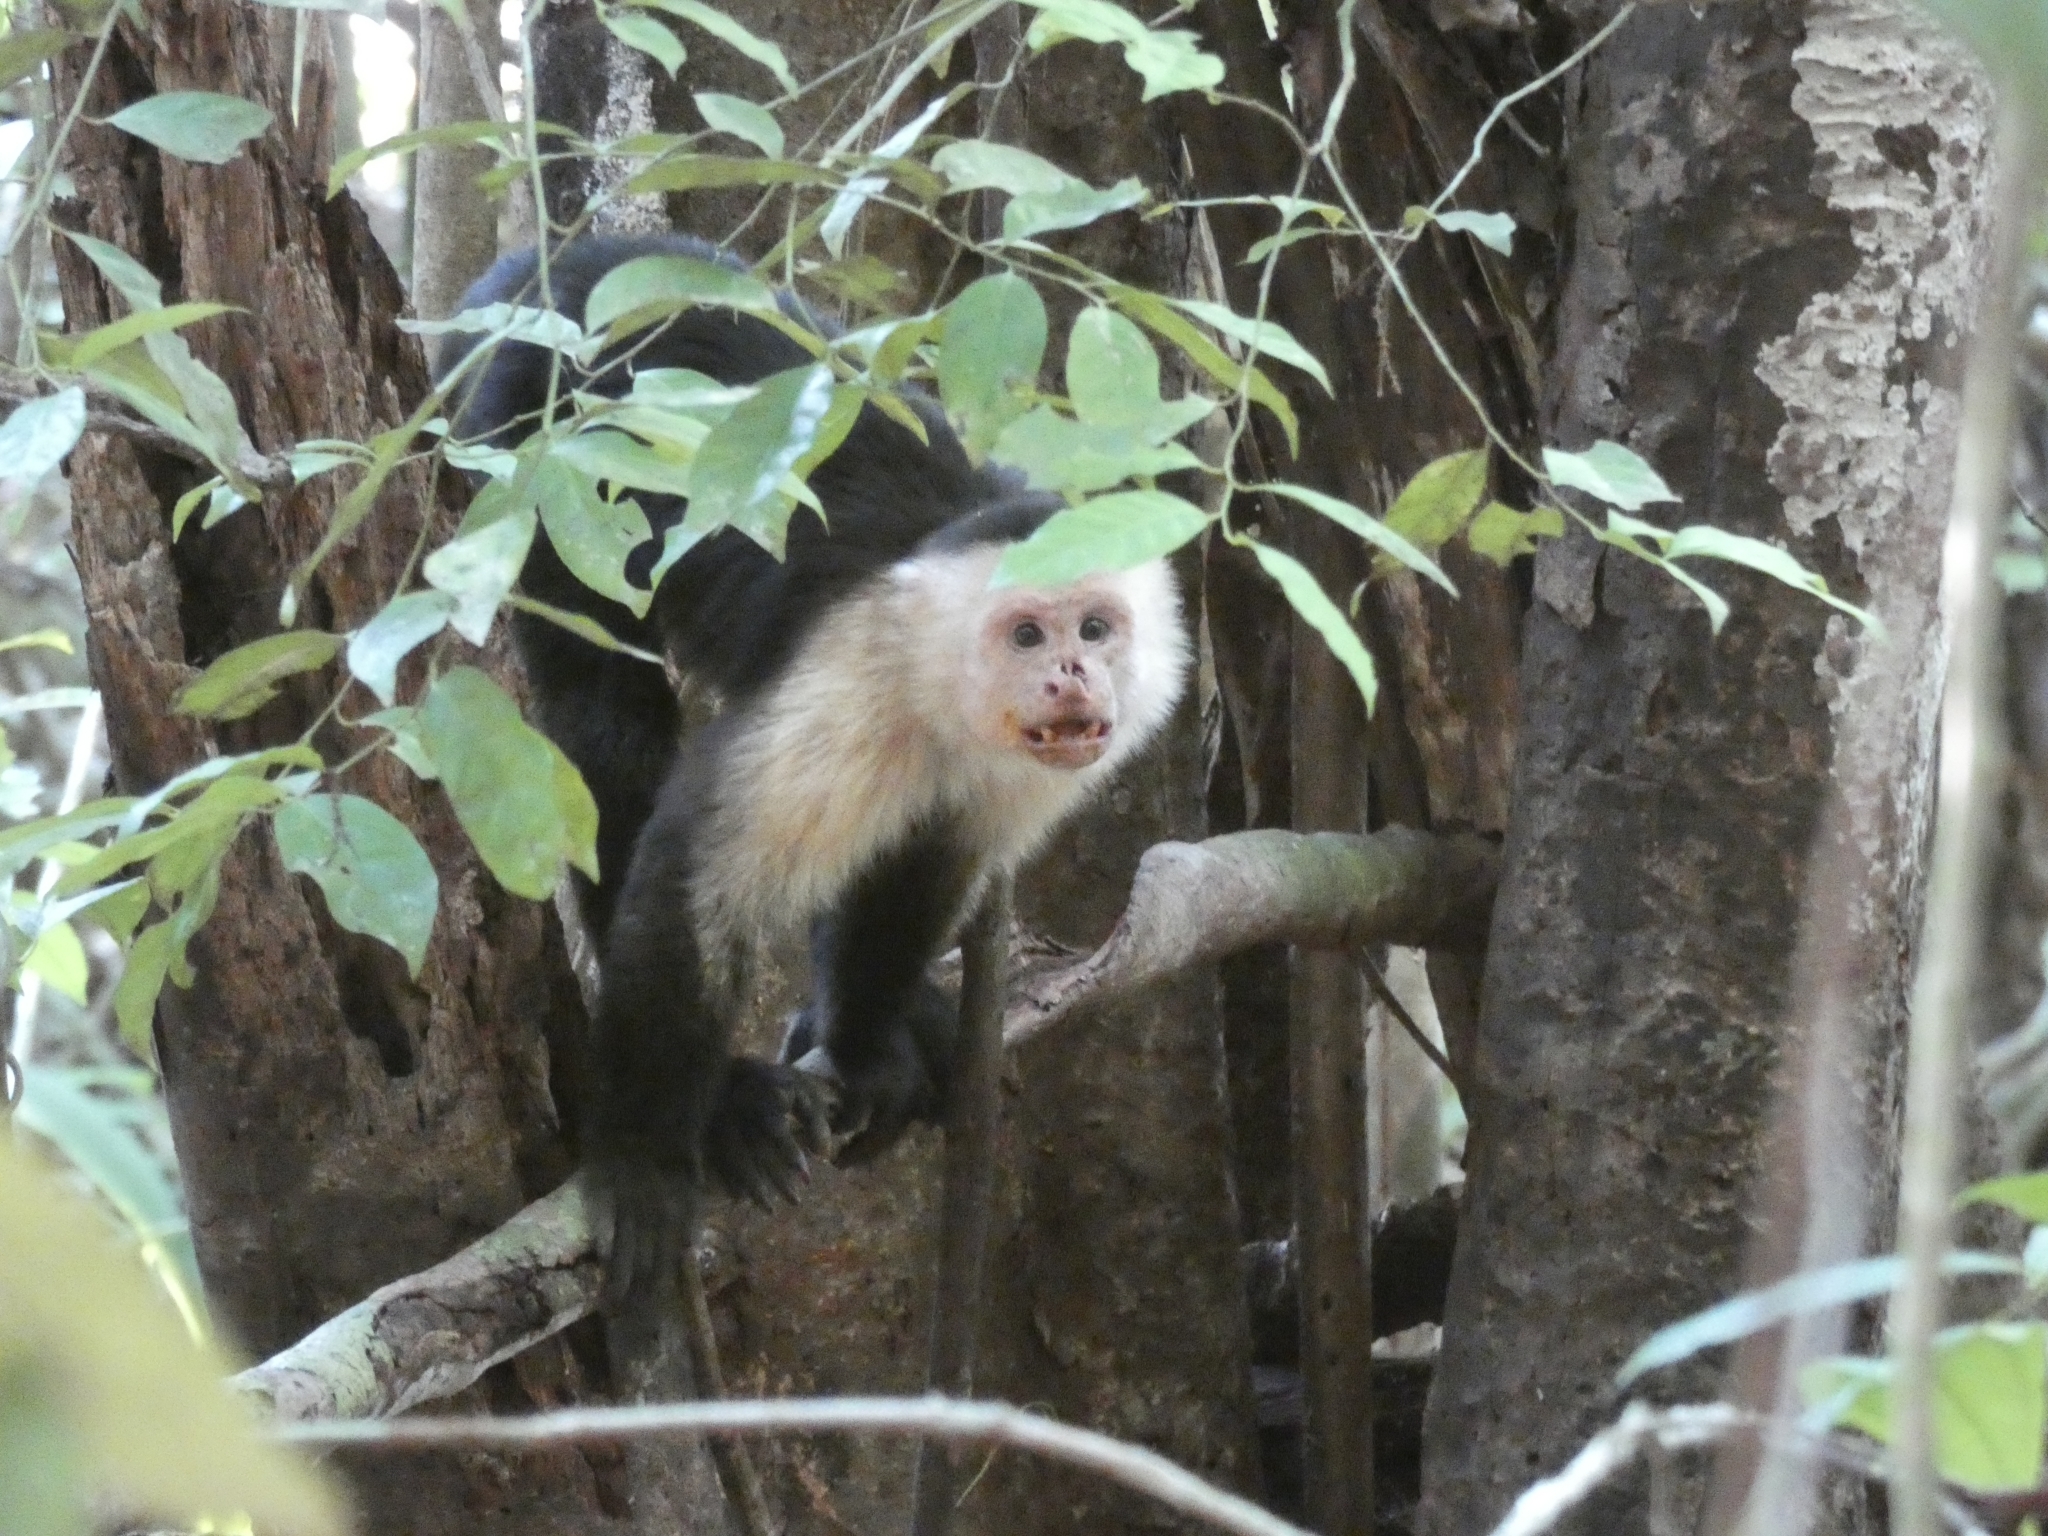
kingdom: Animalia
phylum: Chordata
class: Mammalia
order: Primates
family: Cebidae
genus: Cebus
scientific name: Cebus imitator
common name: Panamanian white-faced capuchin
